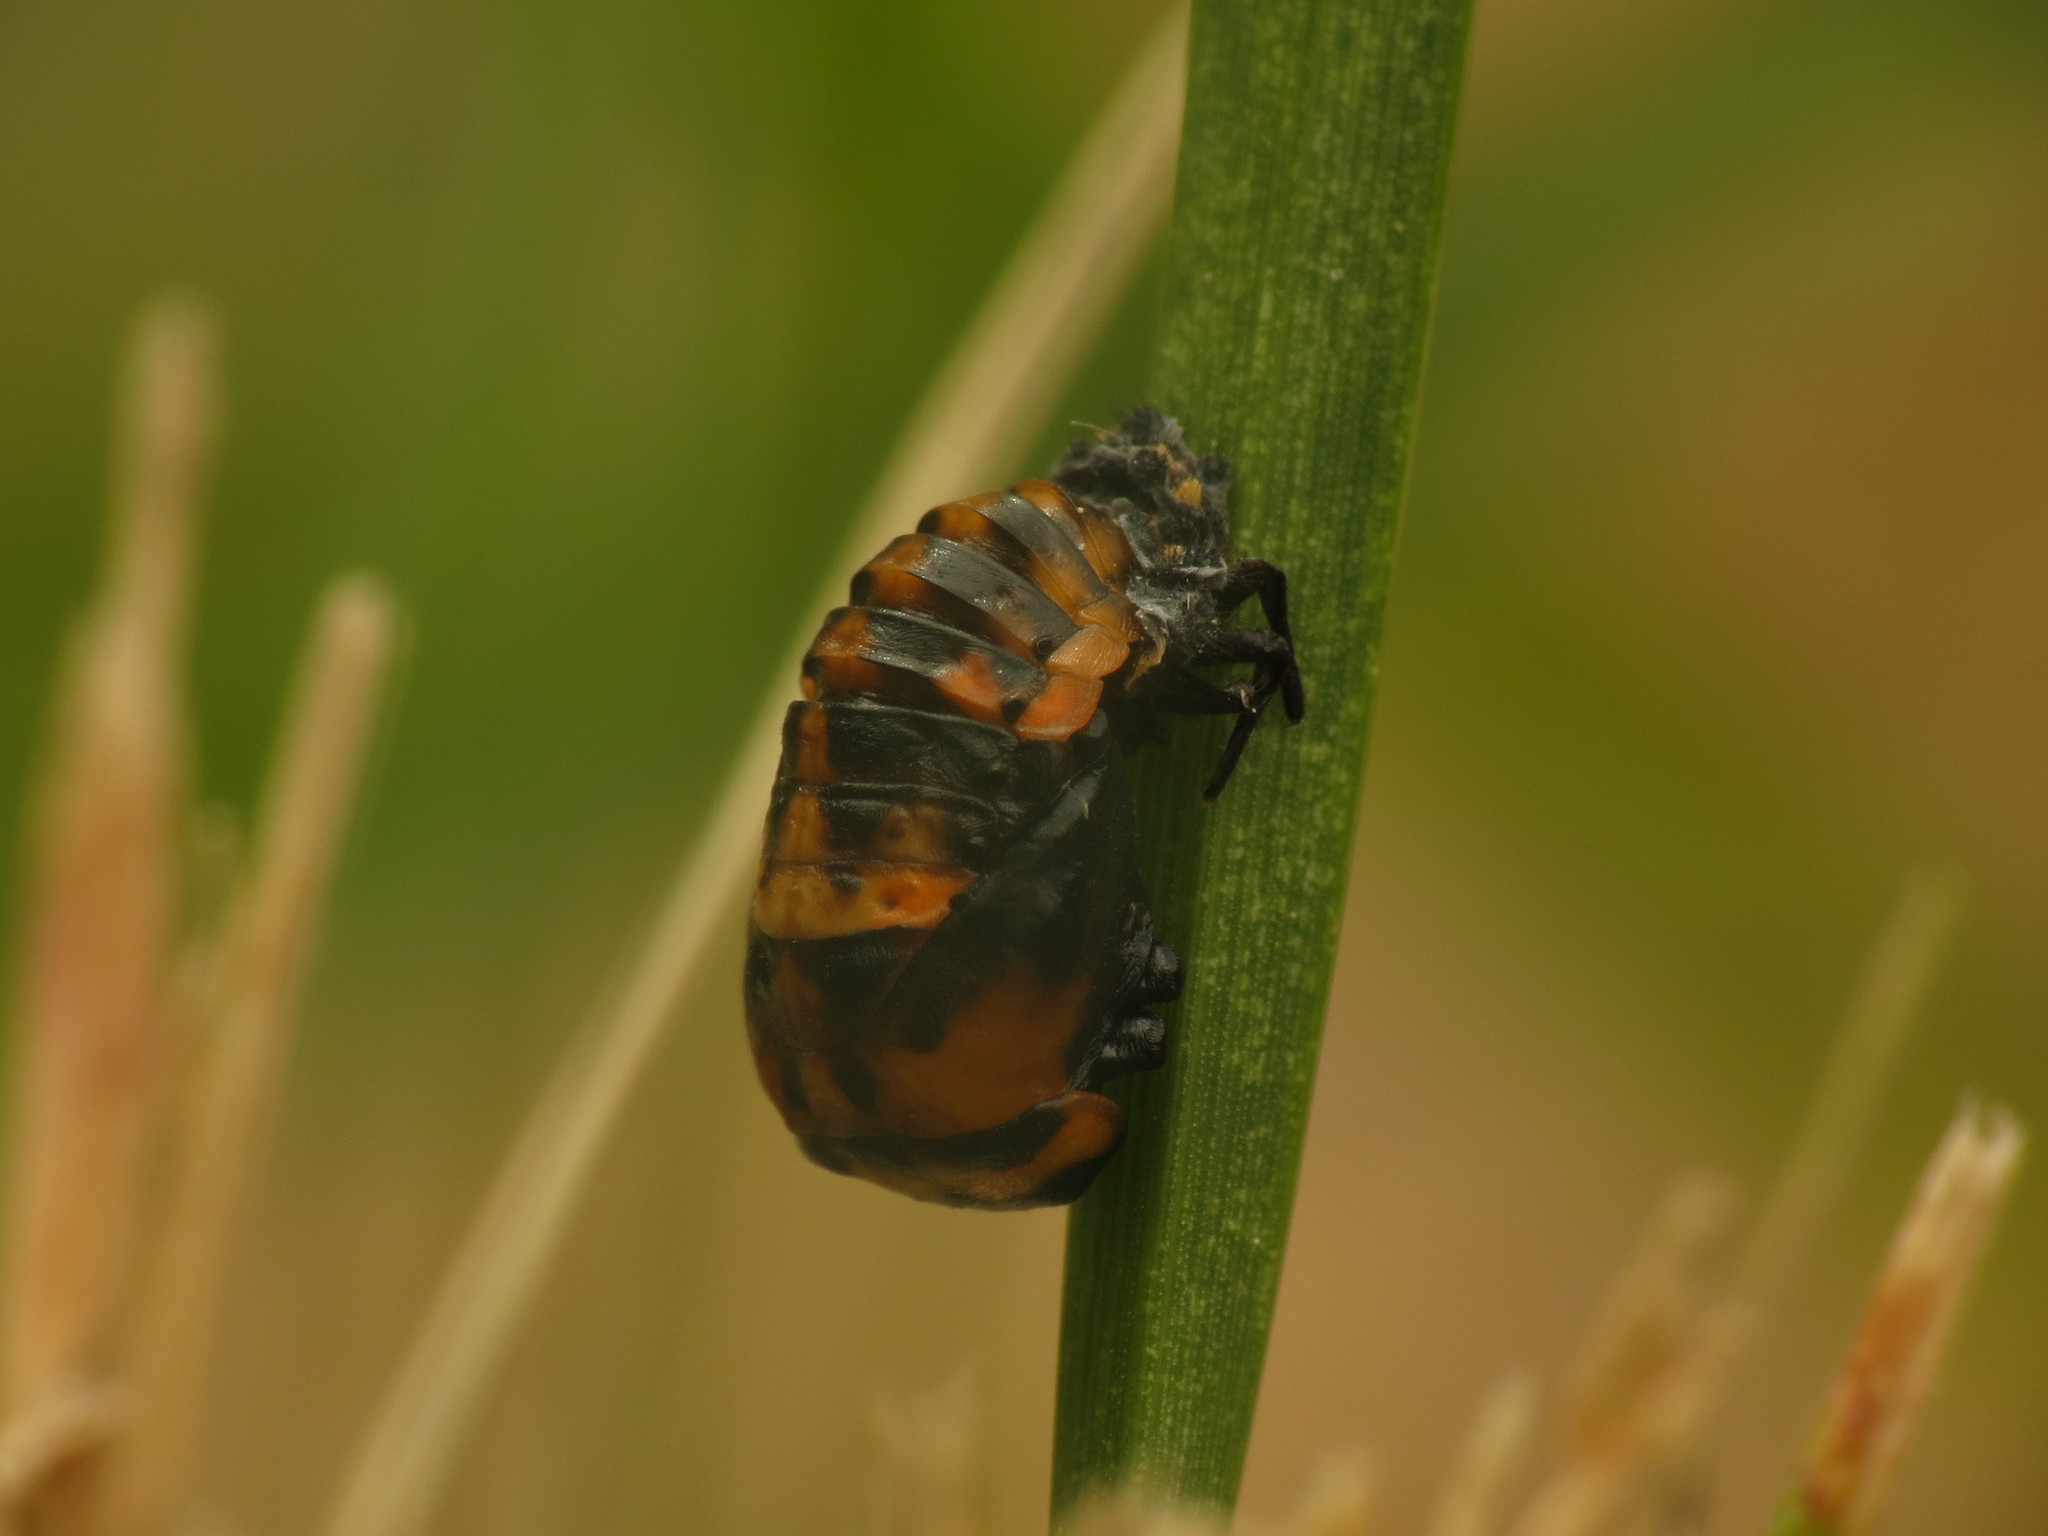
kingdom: Animalia
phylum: Arthropoda
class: Insecta
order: Coleoptera
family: Coccinellidae
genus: Coccinella
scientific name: Coccinella septempunctata
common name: Sevenspotted lady beetle
